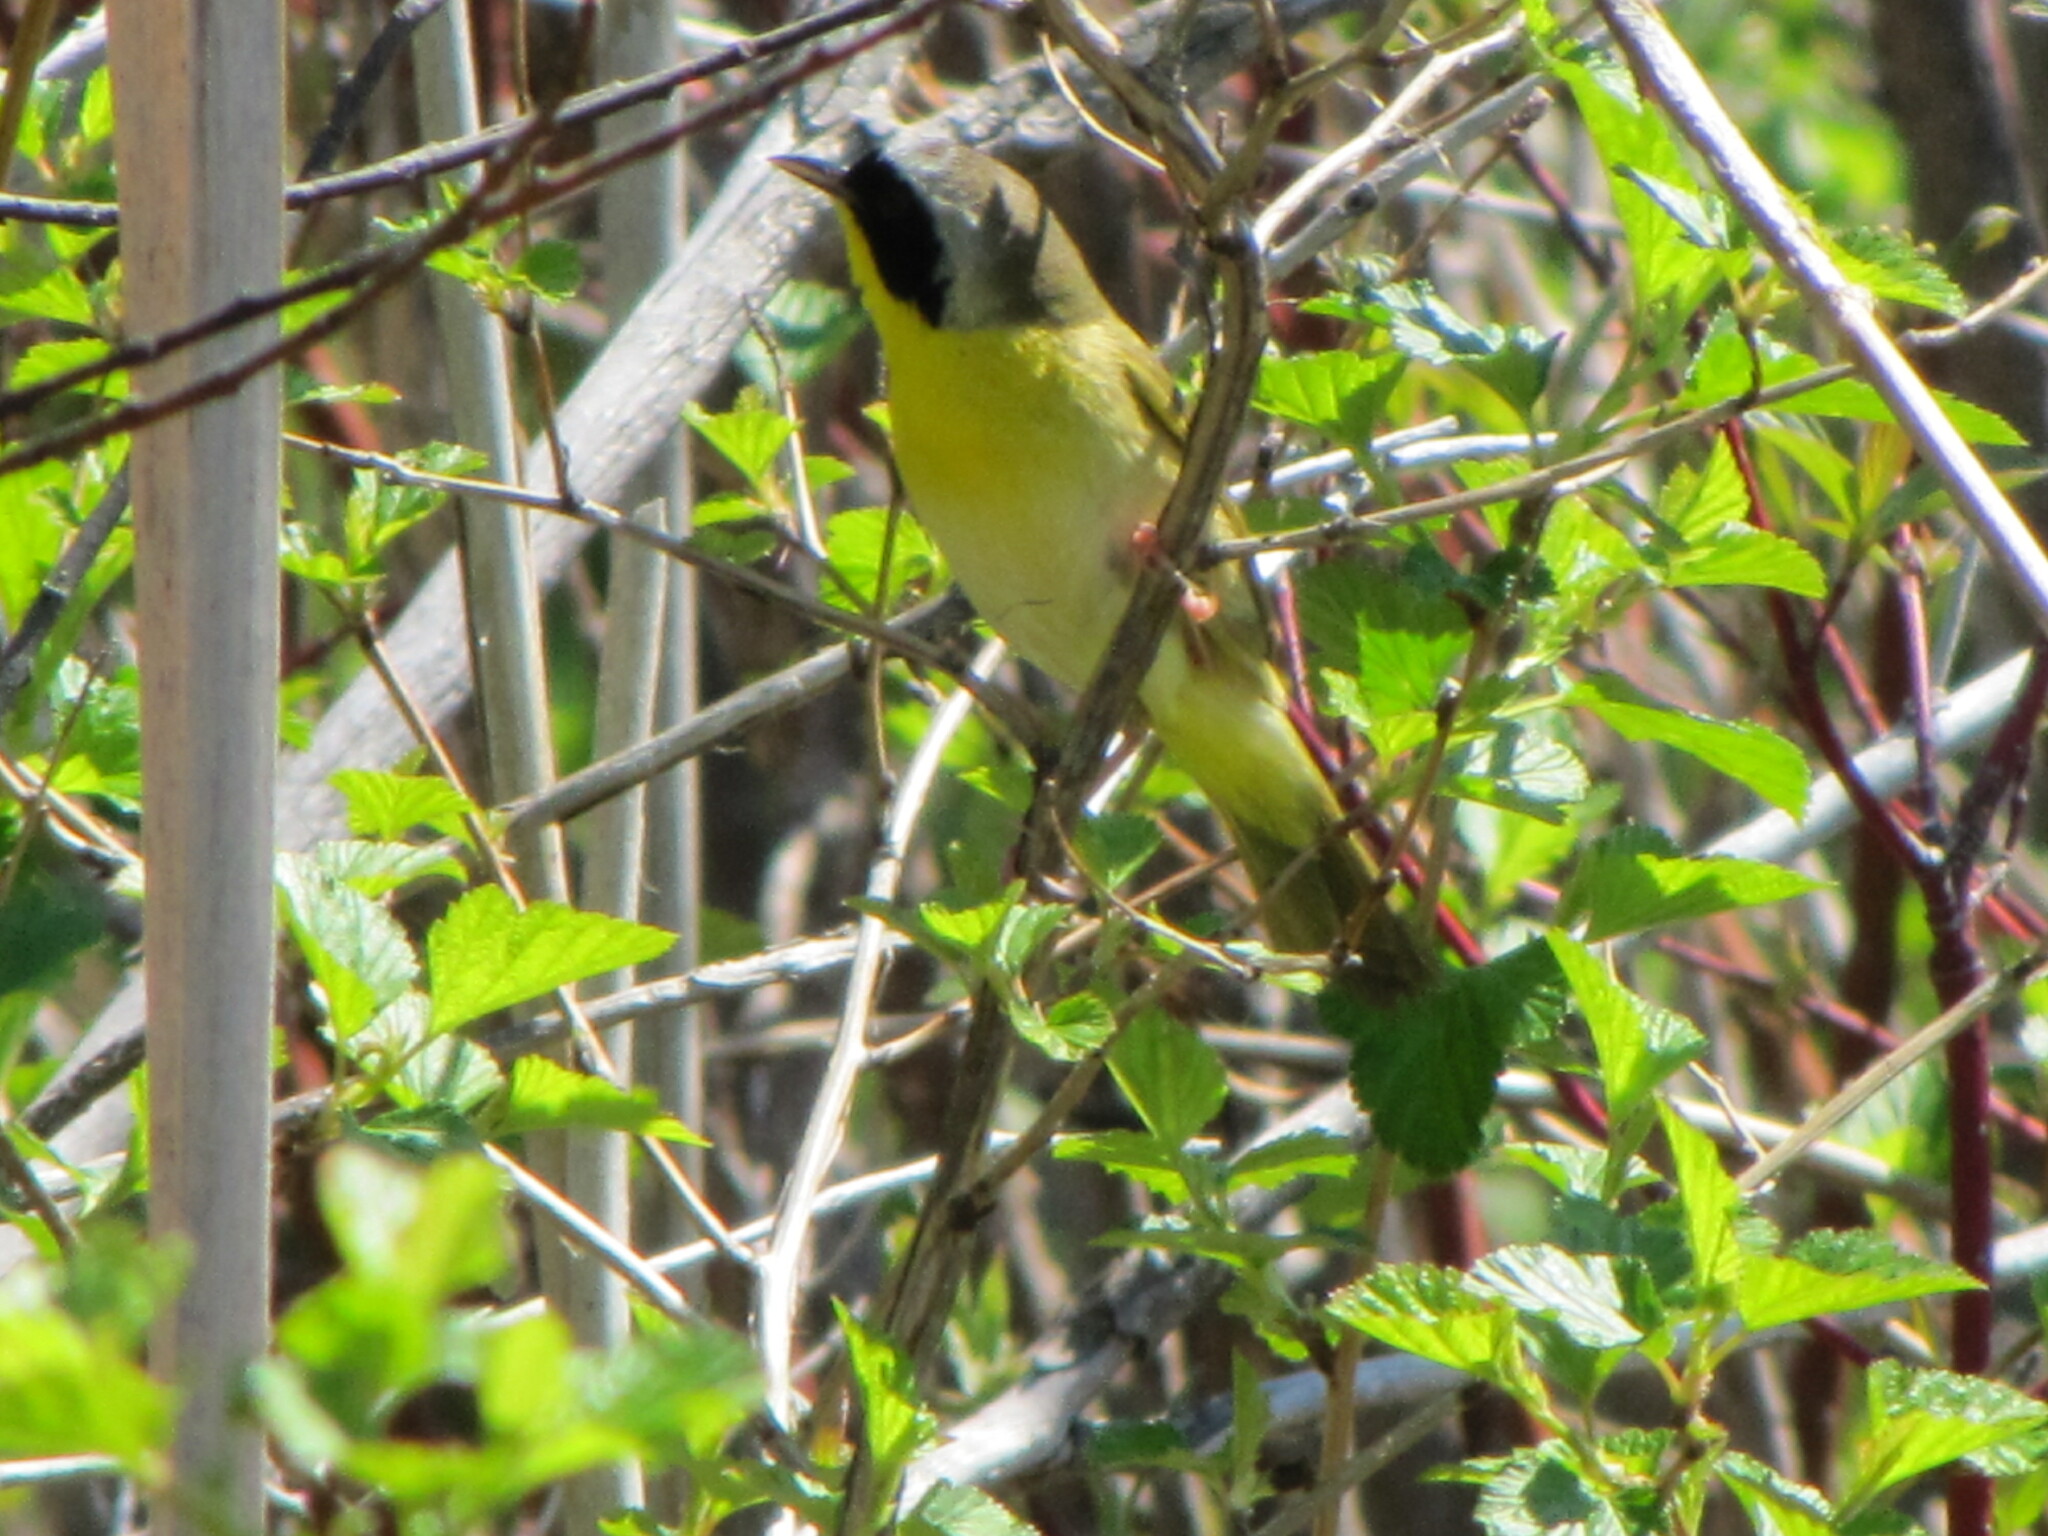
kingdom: Animalia
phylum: Chordata
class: Aves
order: Passeriformes
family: Parulidae
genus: Geothlypis
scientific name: Geothlypis trichas
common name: Common yellowthroat
